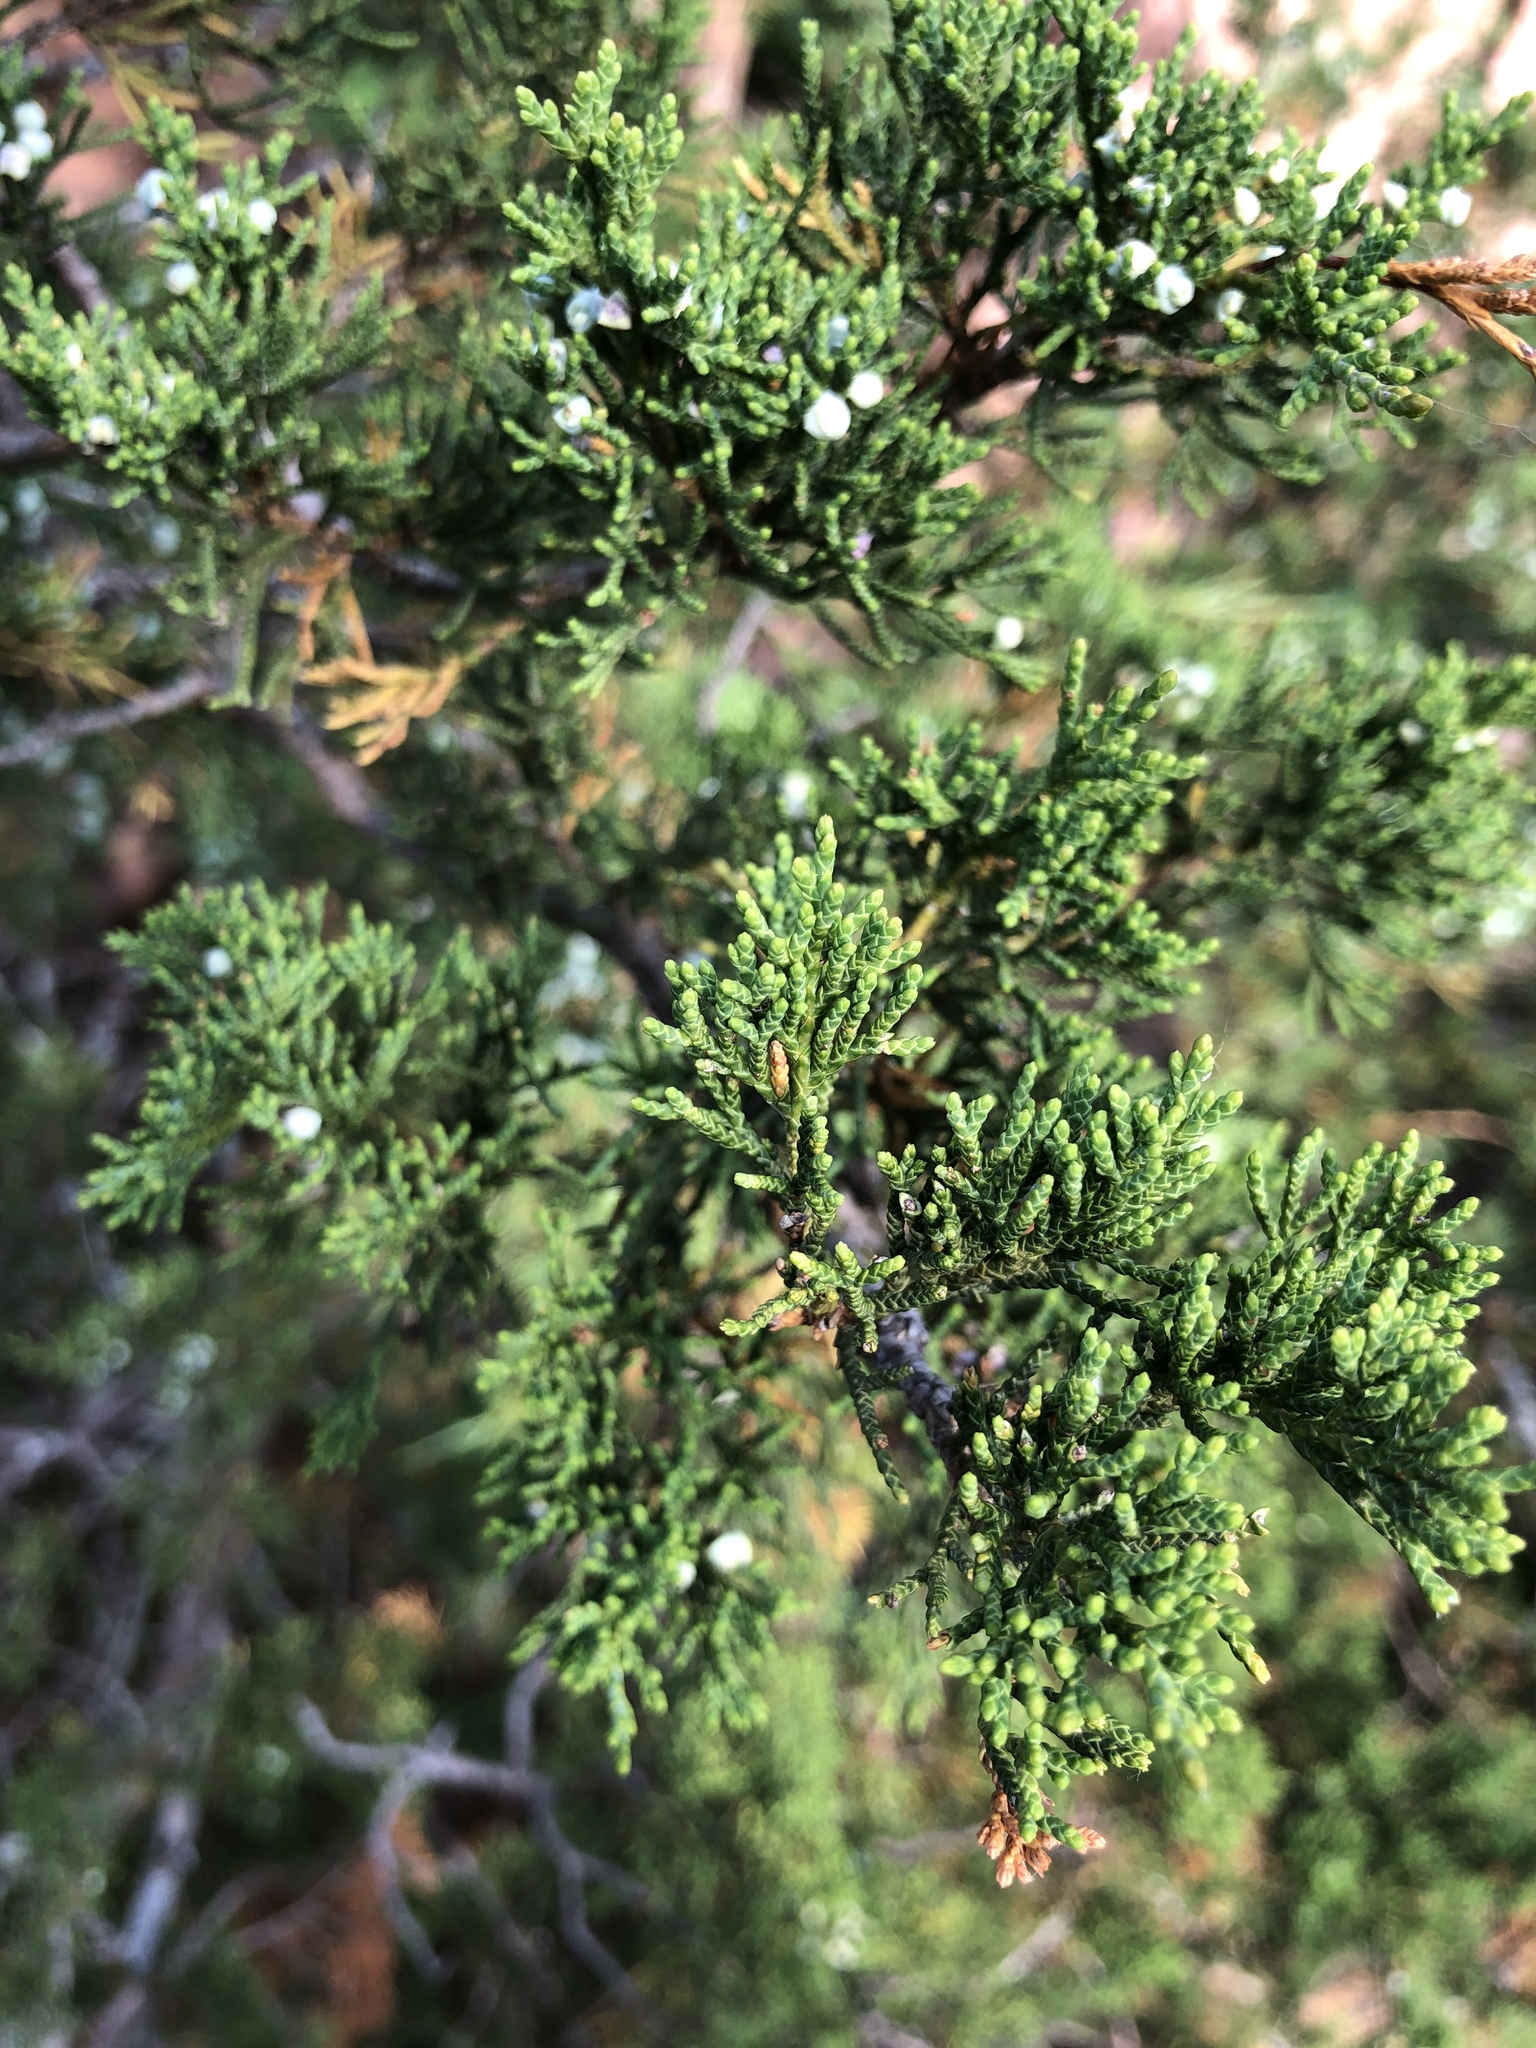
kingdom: Plantae
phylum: Tracheophyta
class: Pinopsida
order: Pinales
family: Cupressaceae
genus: Juniperus
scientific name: Juniperus virginiana
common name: Red juniper
